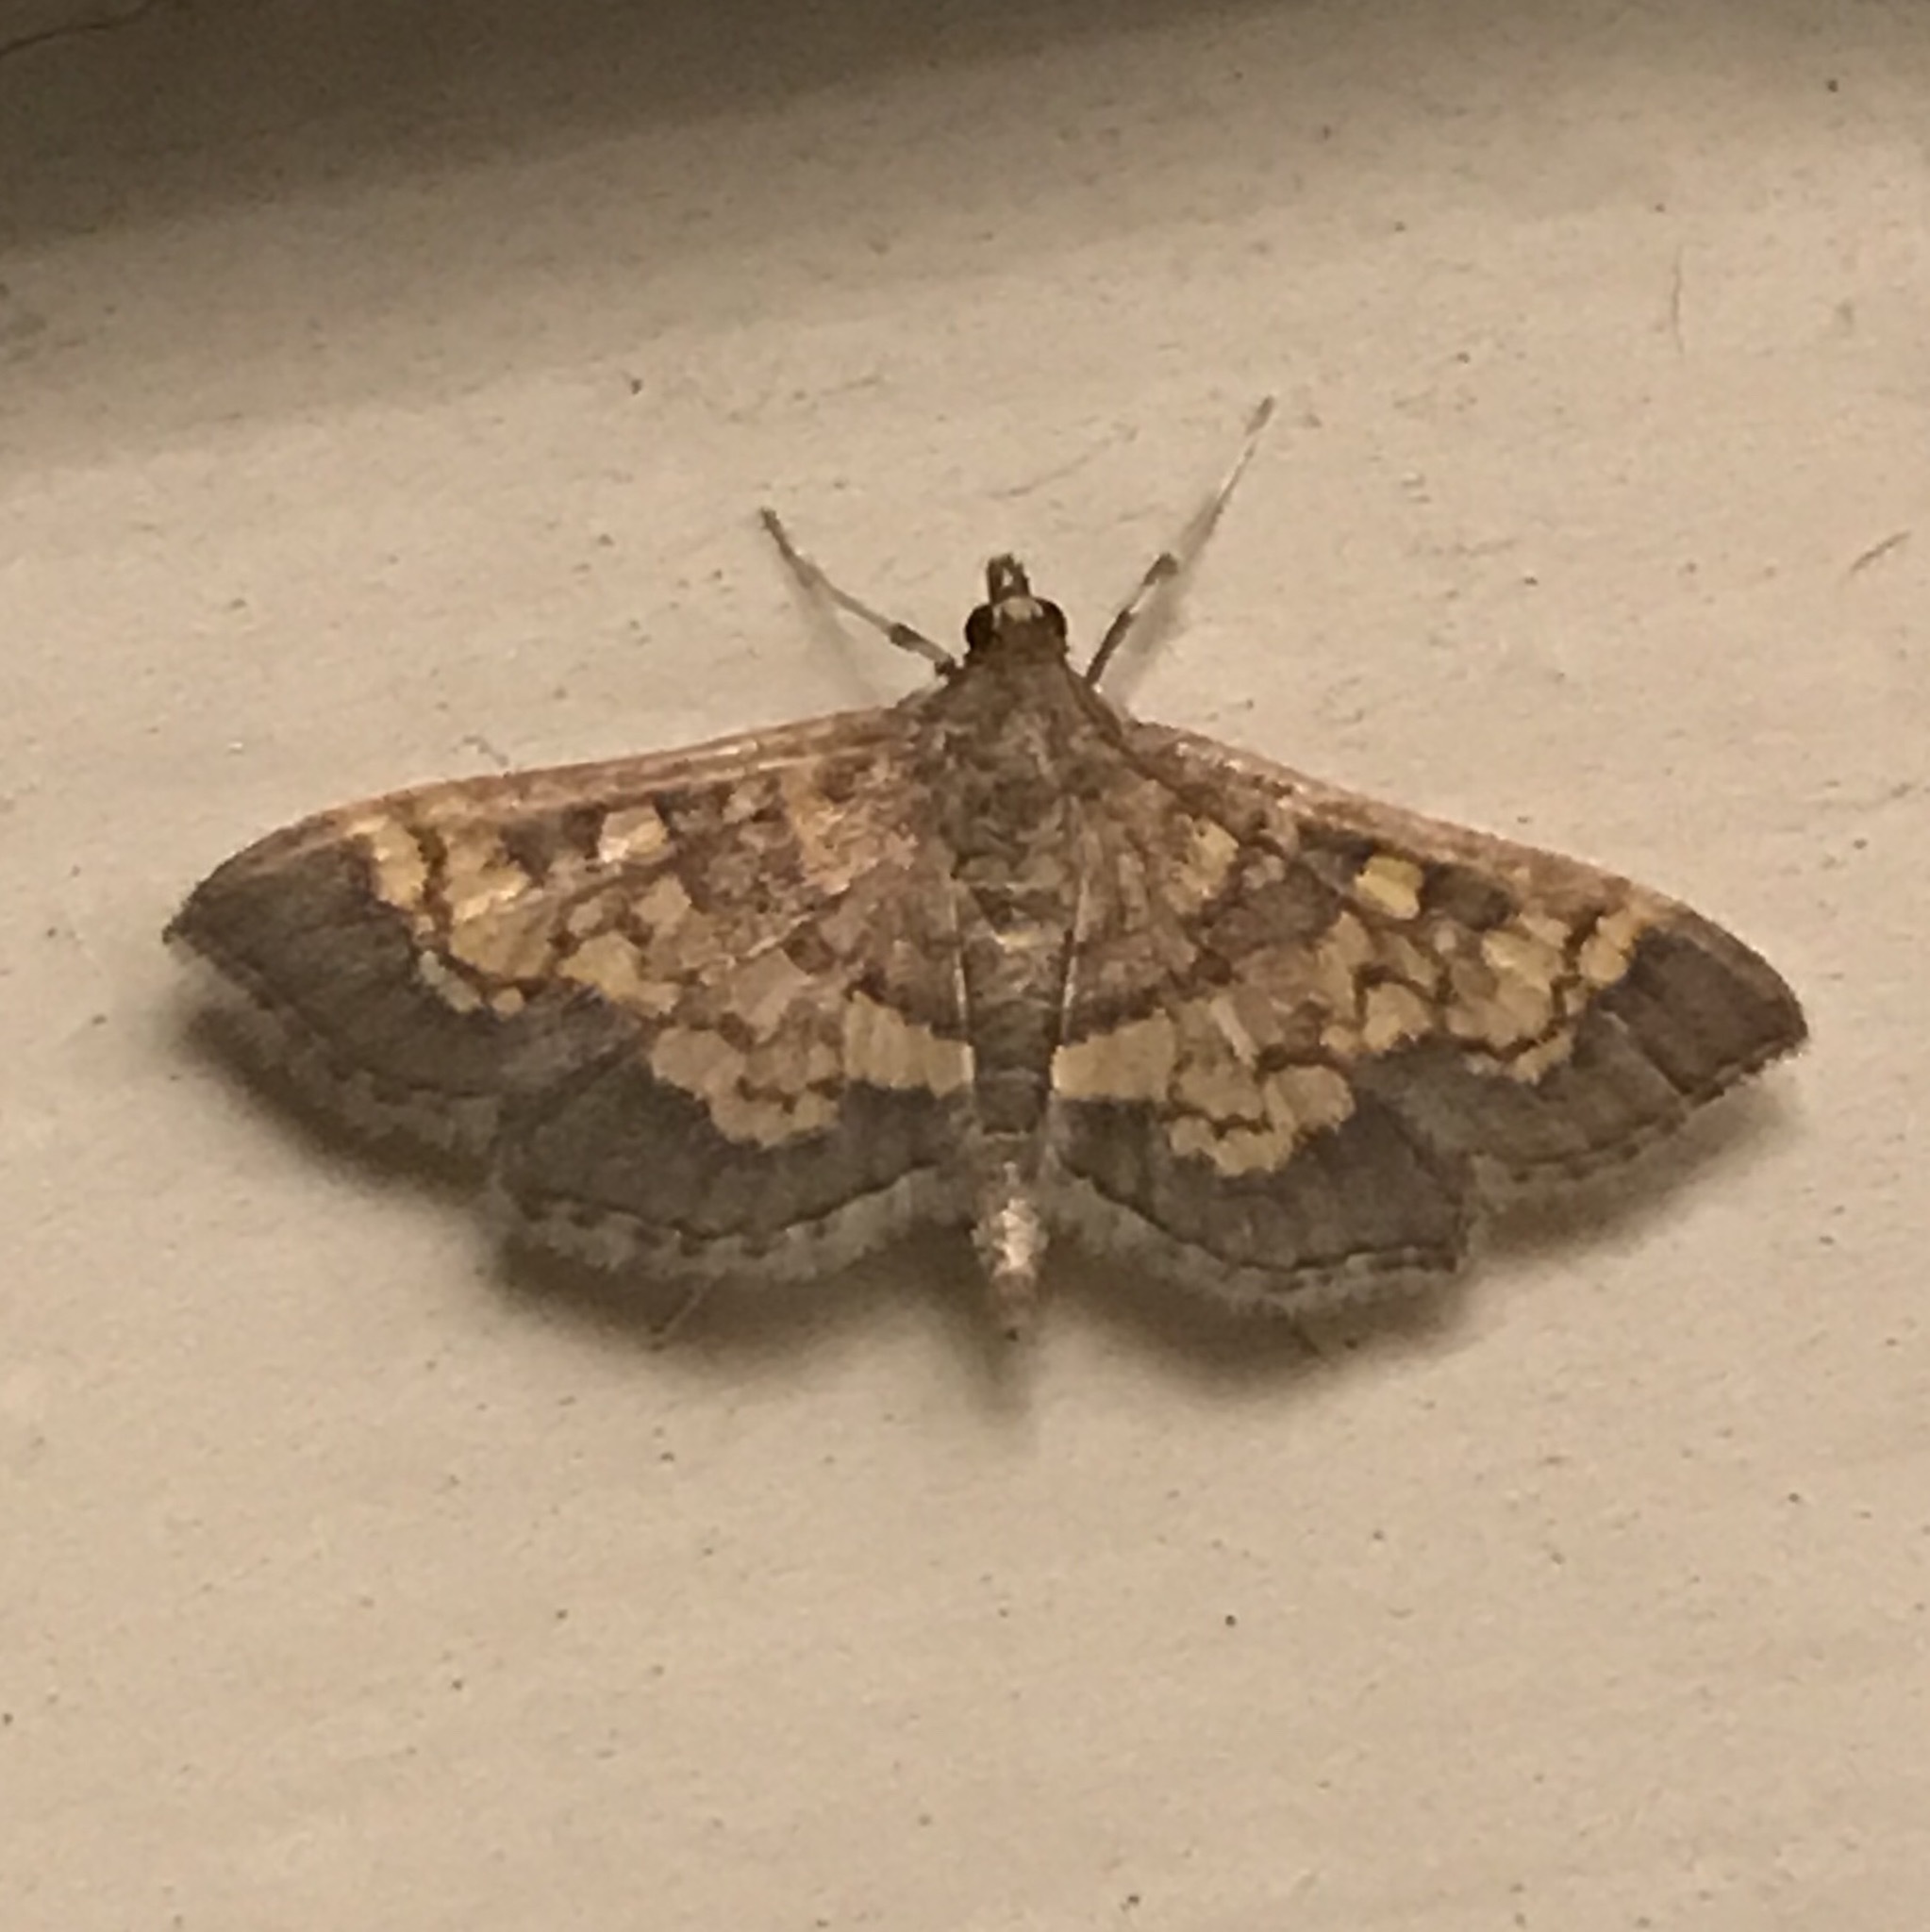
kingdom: Animalia
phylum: Arthropoda
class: Insecta
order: Lepidoptera
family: Crambidae
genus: Epipagis
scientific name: Epipagis adipaloides
